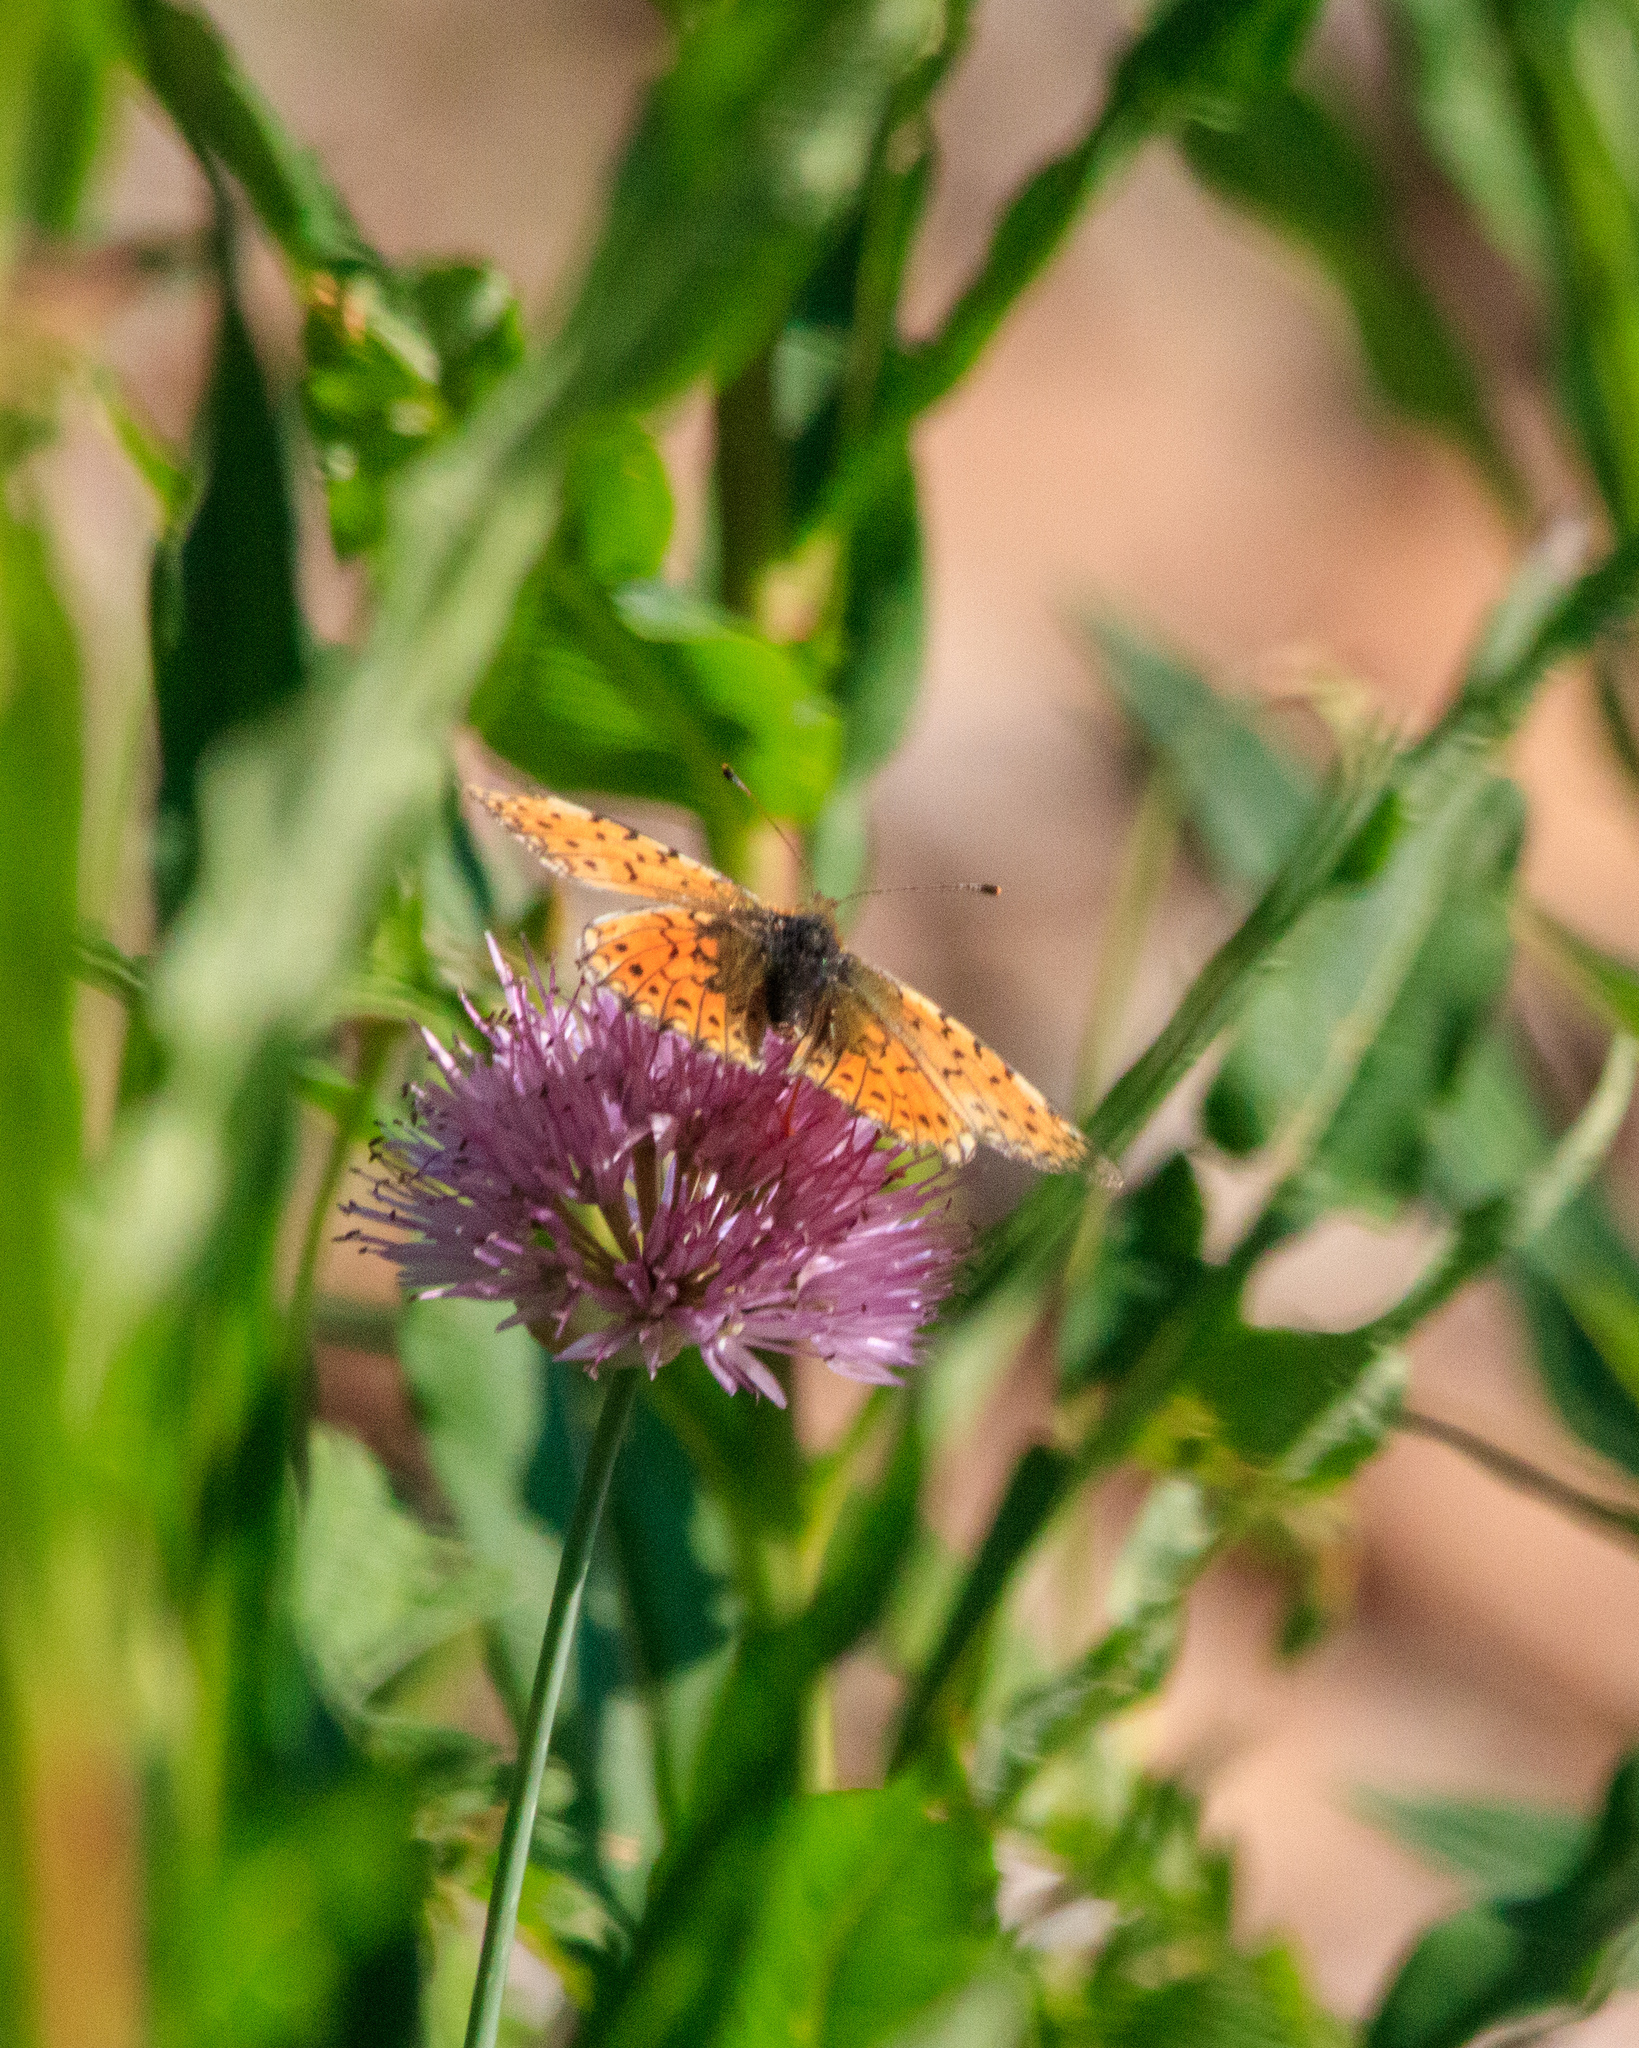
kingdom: Animalia
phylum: Arthropoda
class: Insecta
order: Lepidoptera
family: Nymphalidae
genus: Boloria
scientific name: Boloria erubescens
